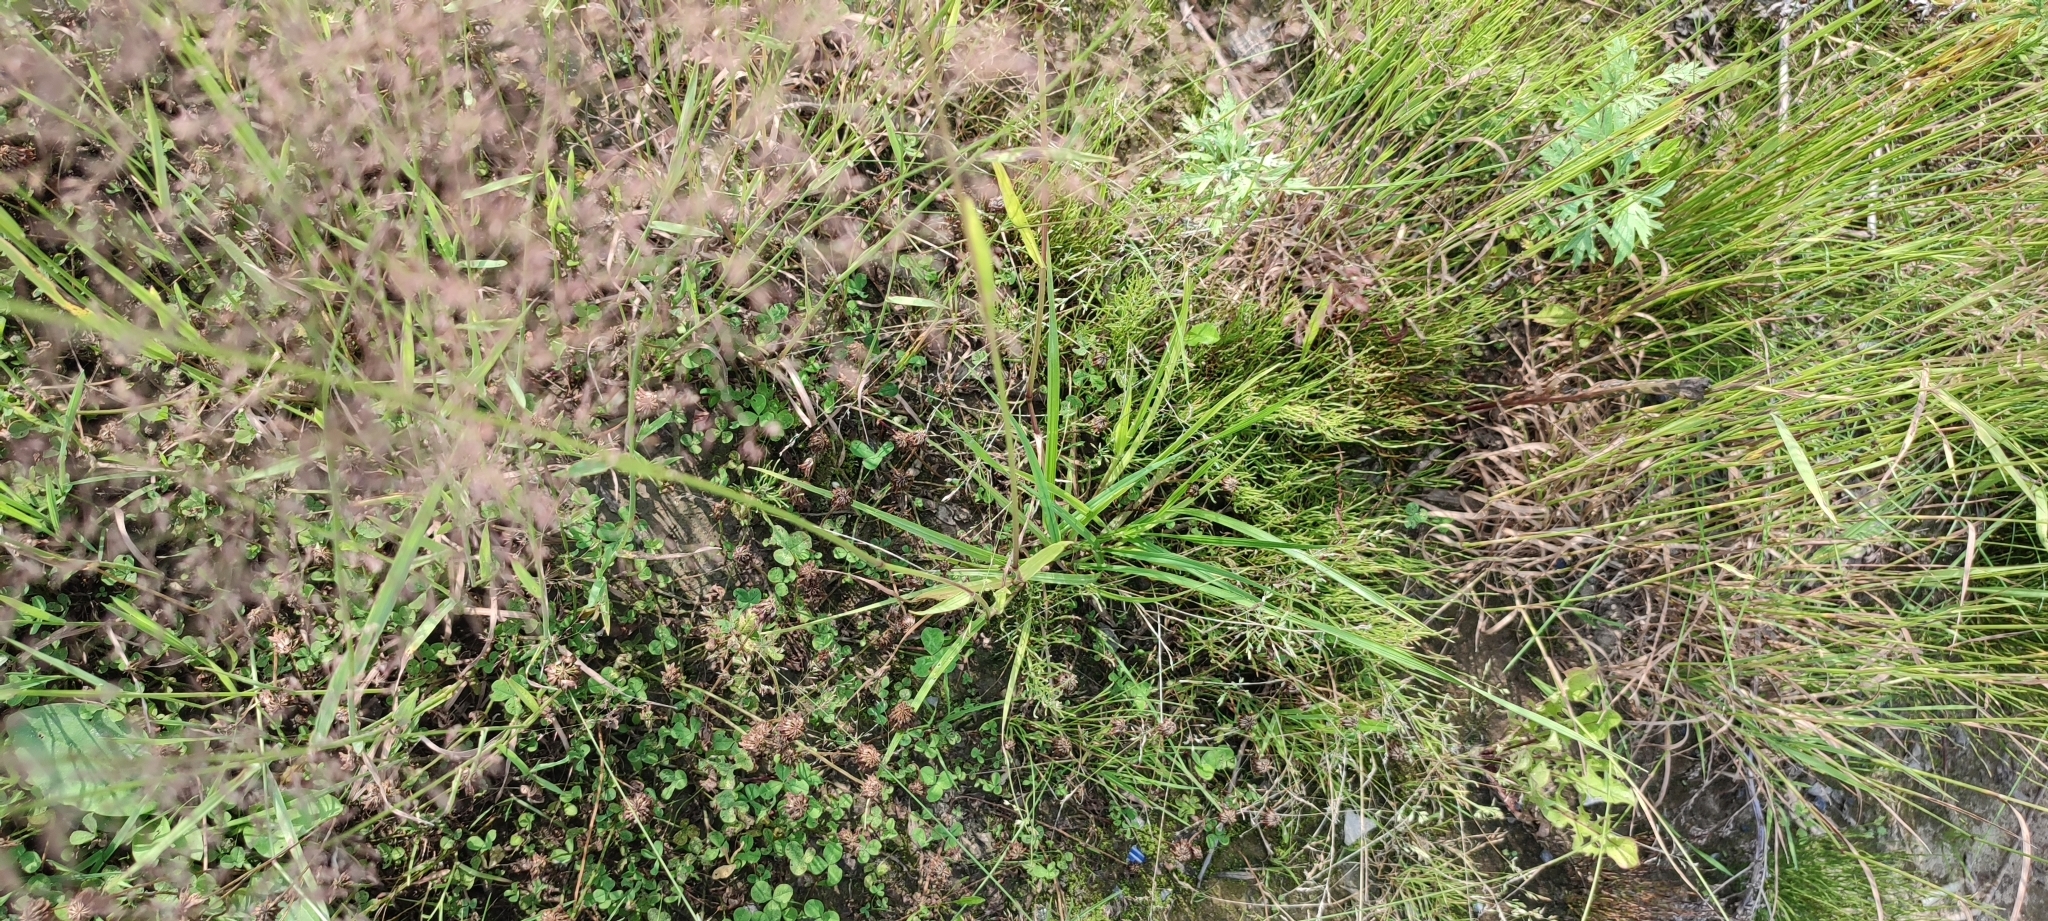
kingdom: Plantae
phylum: Tracheophyta
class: Liliopsida
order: Poales
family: Poaceae
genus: Lolium
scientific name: Lolium pratense
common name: Dover grass
